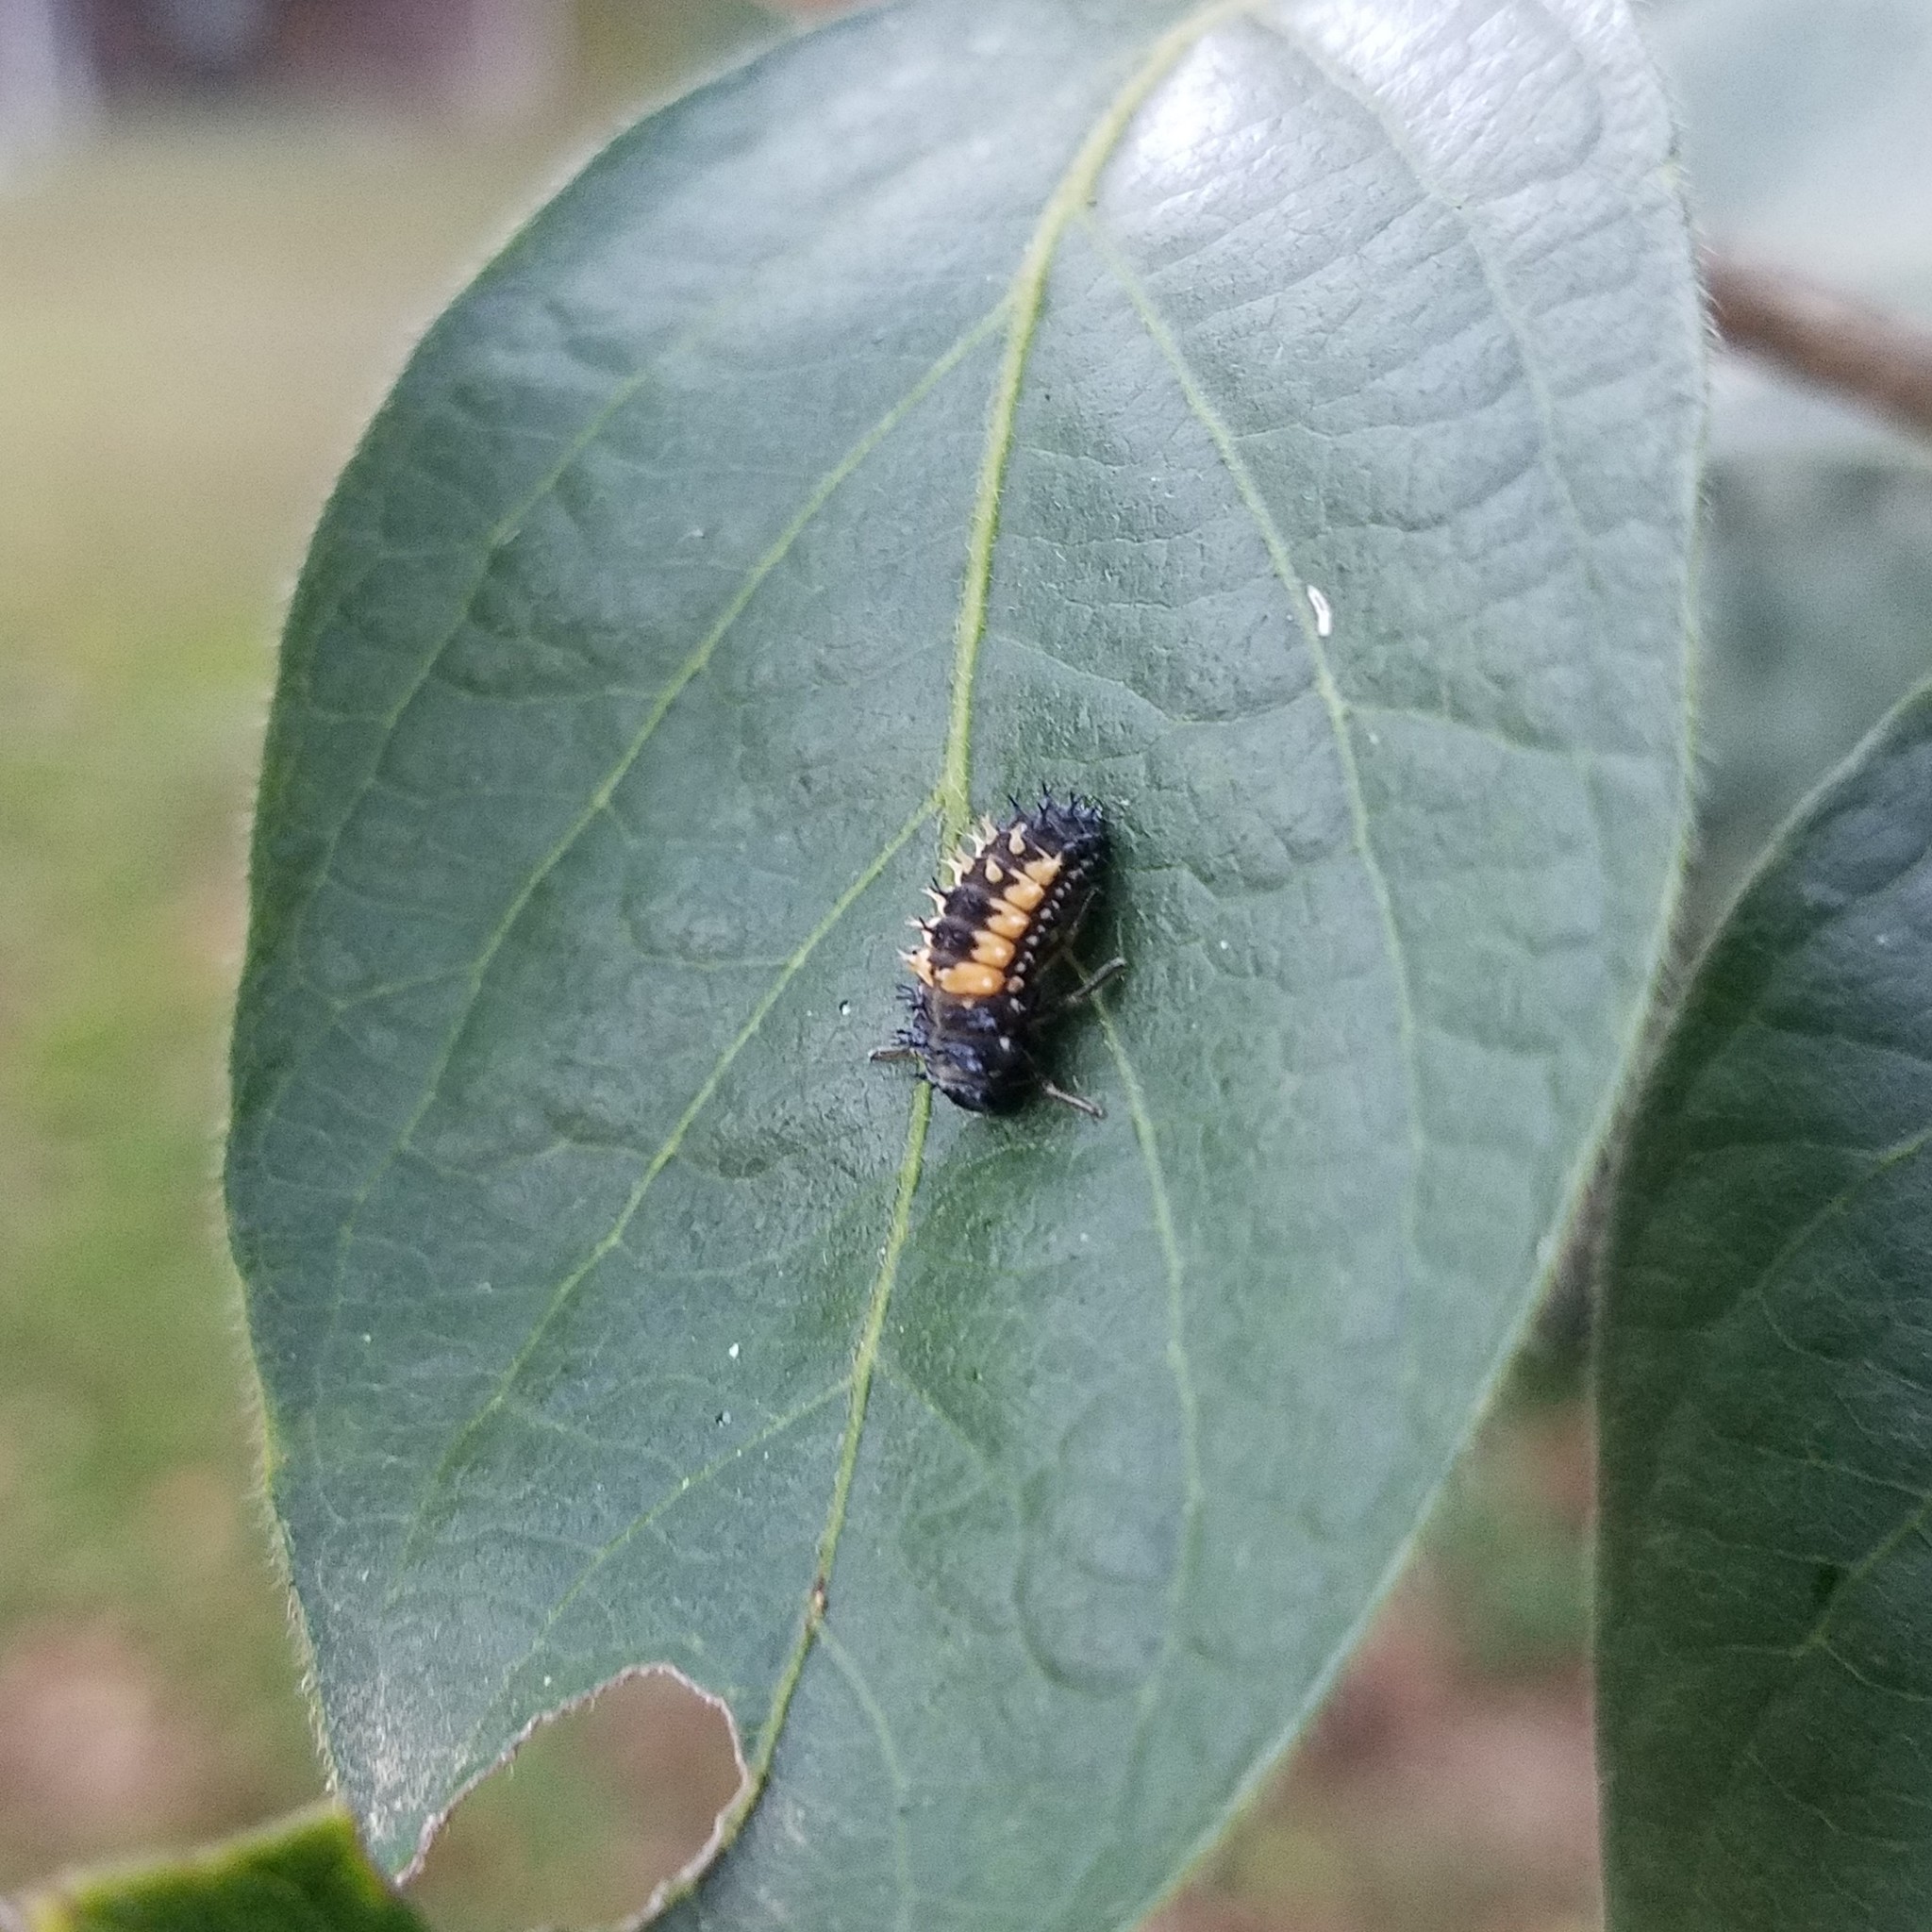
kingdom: Animalia
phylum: Arthropoda
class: Insecta
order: Coleoptera
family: Coccinellidae
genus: Harmonia
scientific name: Harmonia axyridis
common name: Harlequin ladybird
